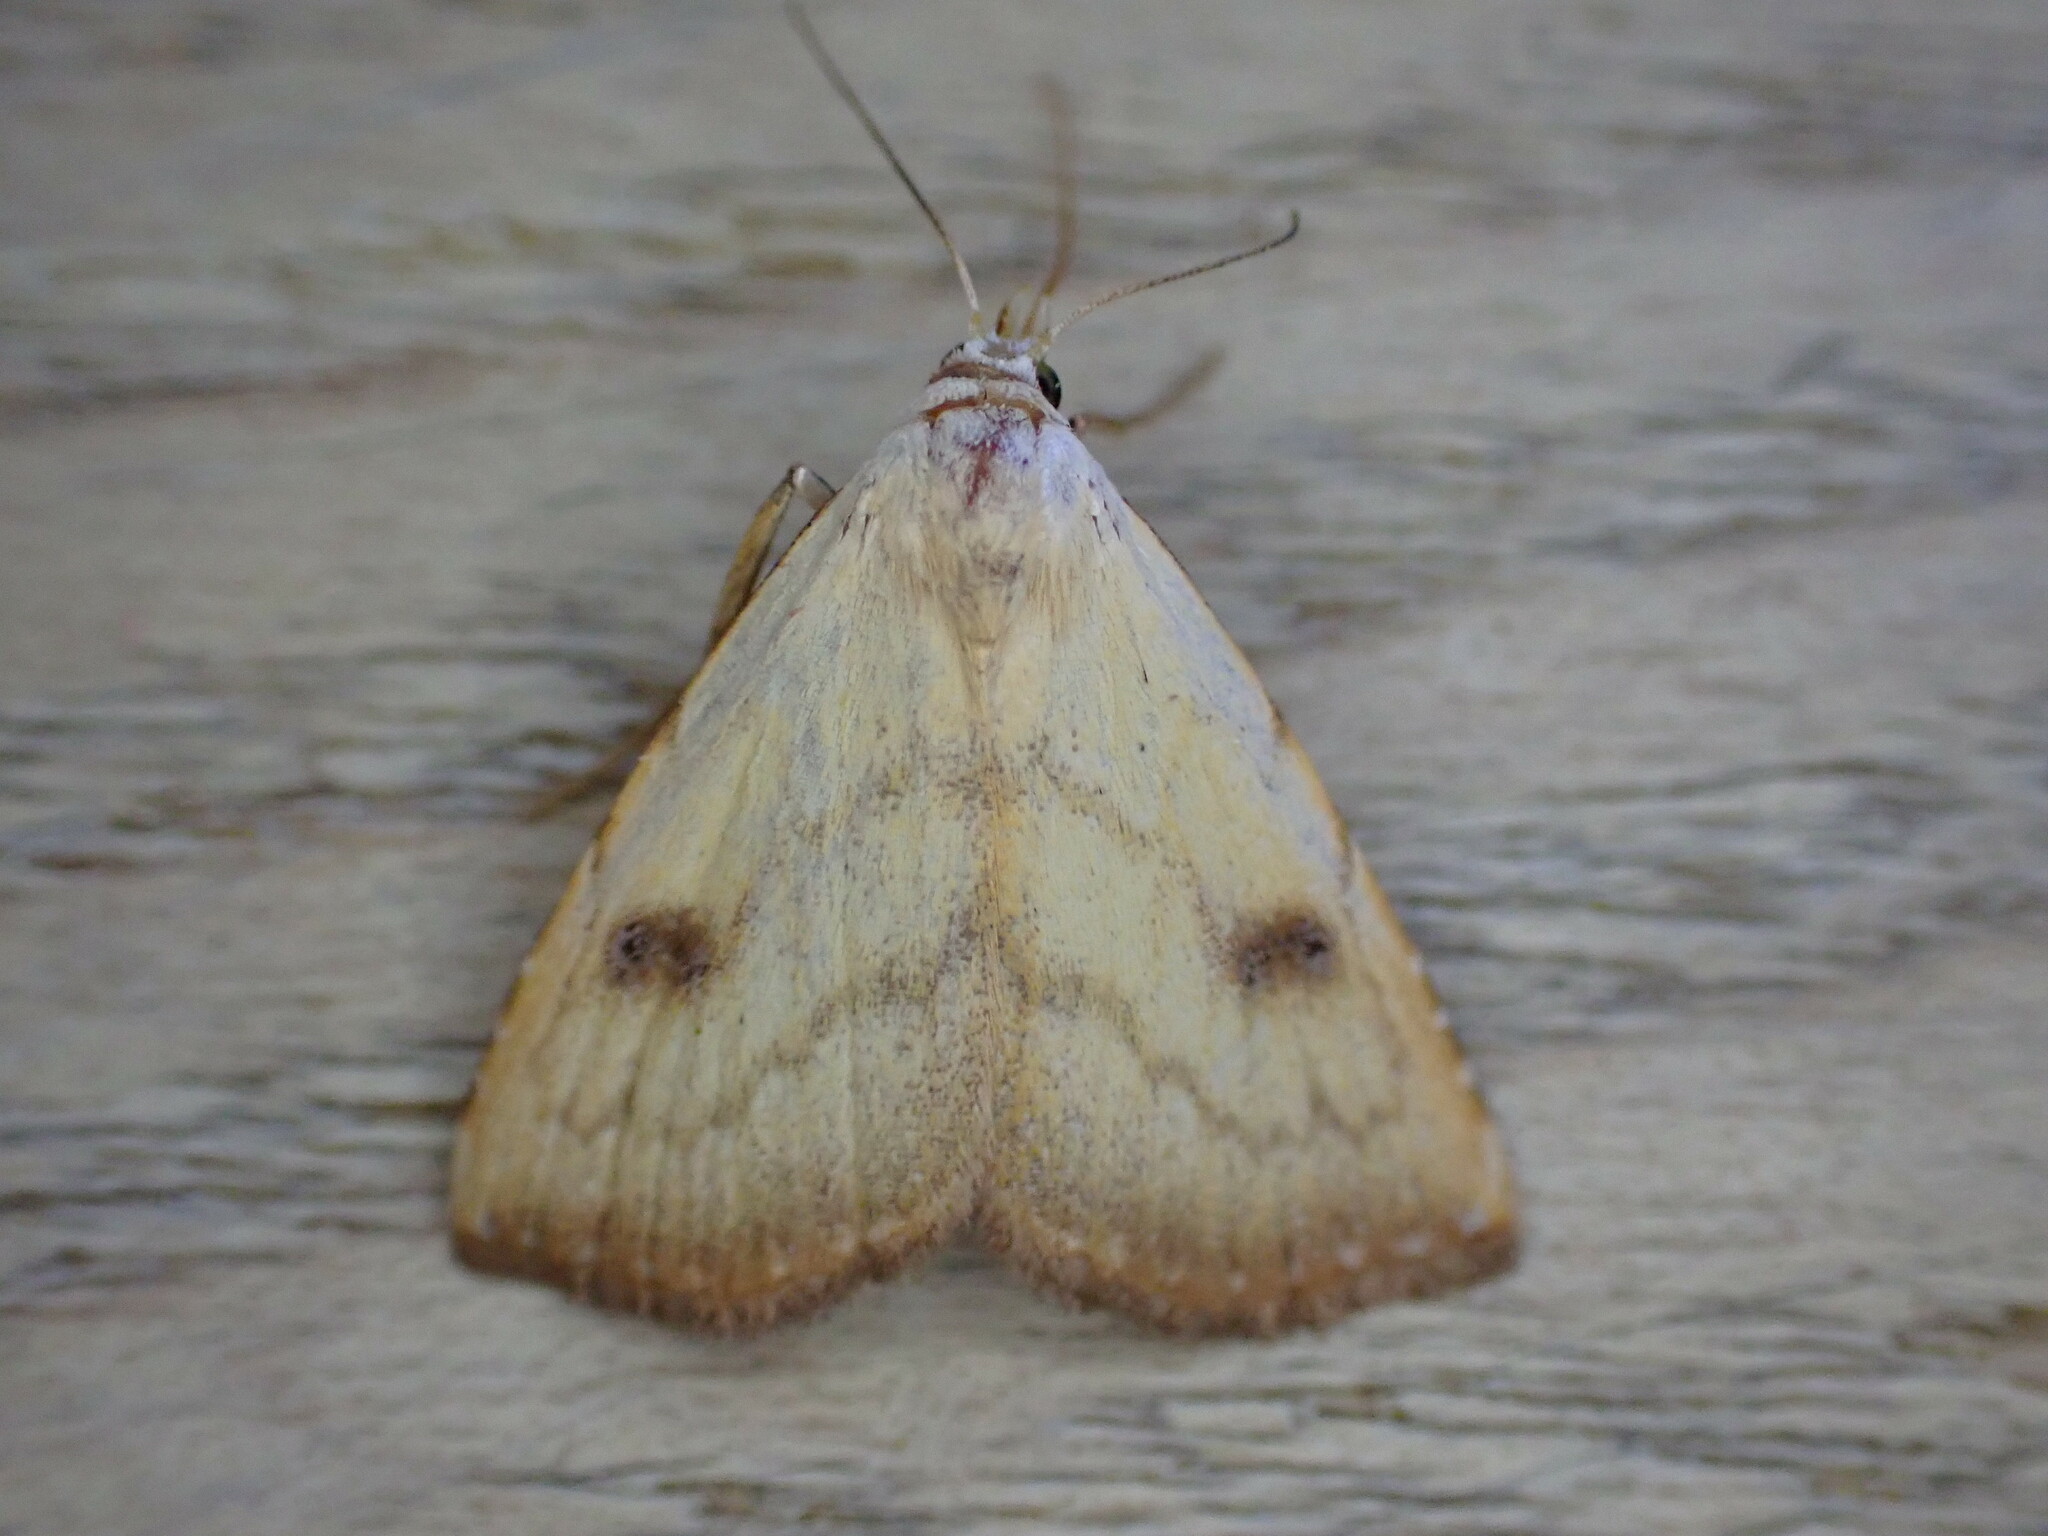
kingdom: Animalia
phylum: Arthropoda
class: Insecta
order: Lepidoptera
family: Erebidae
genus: Rivula
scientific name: Rivula sericealis
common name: Straw dot
